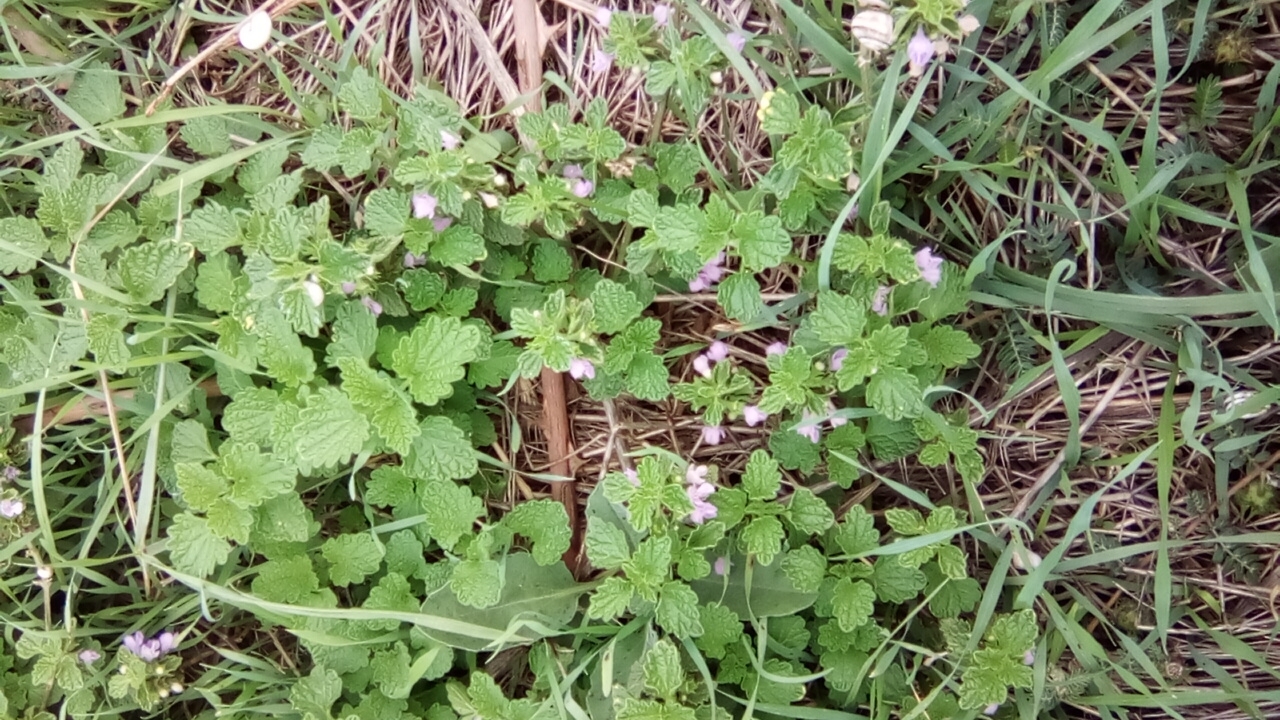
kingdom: Plantae
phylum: Tracheophyta
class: Magnoliopsida
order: Lamiales
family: Lamiaceae
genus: Ballota
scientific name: Ballota nigra
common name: Black horehound
